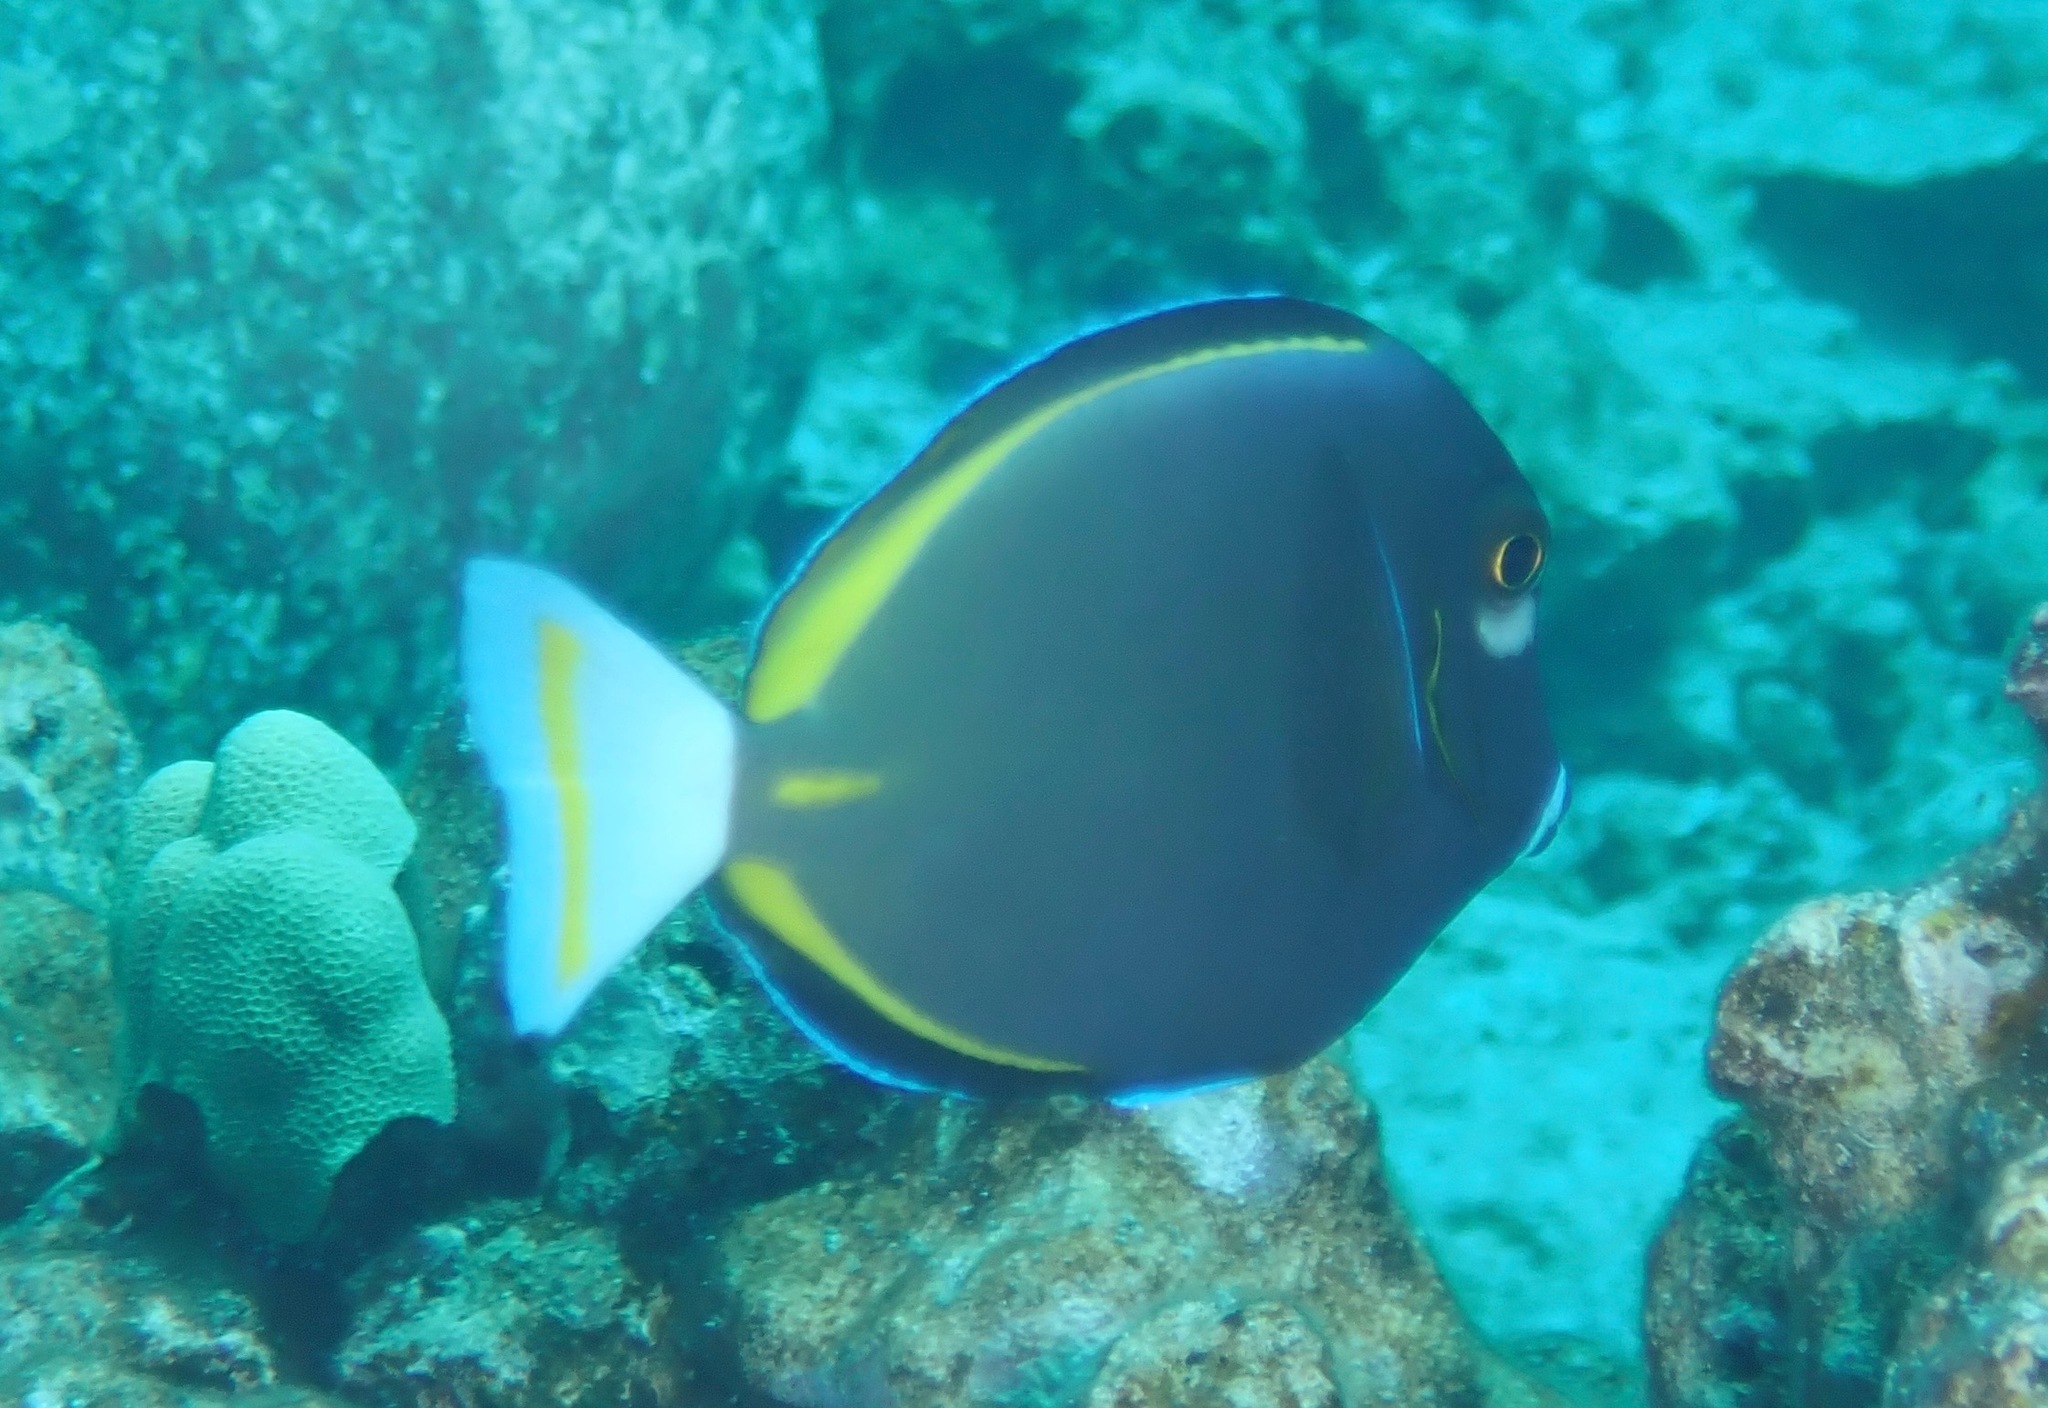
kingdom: Animalia
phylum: Chordata
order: Perciformes
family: Acanthuridae
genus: Acanthurus
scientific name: Acanthurus nigricans
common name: Whitecheek surgeonfish
